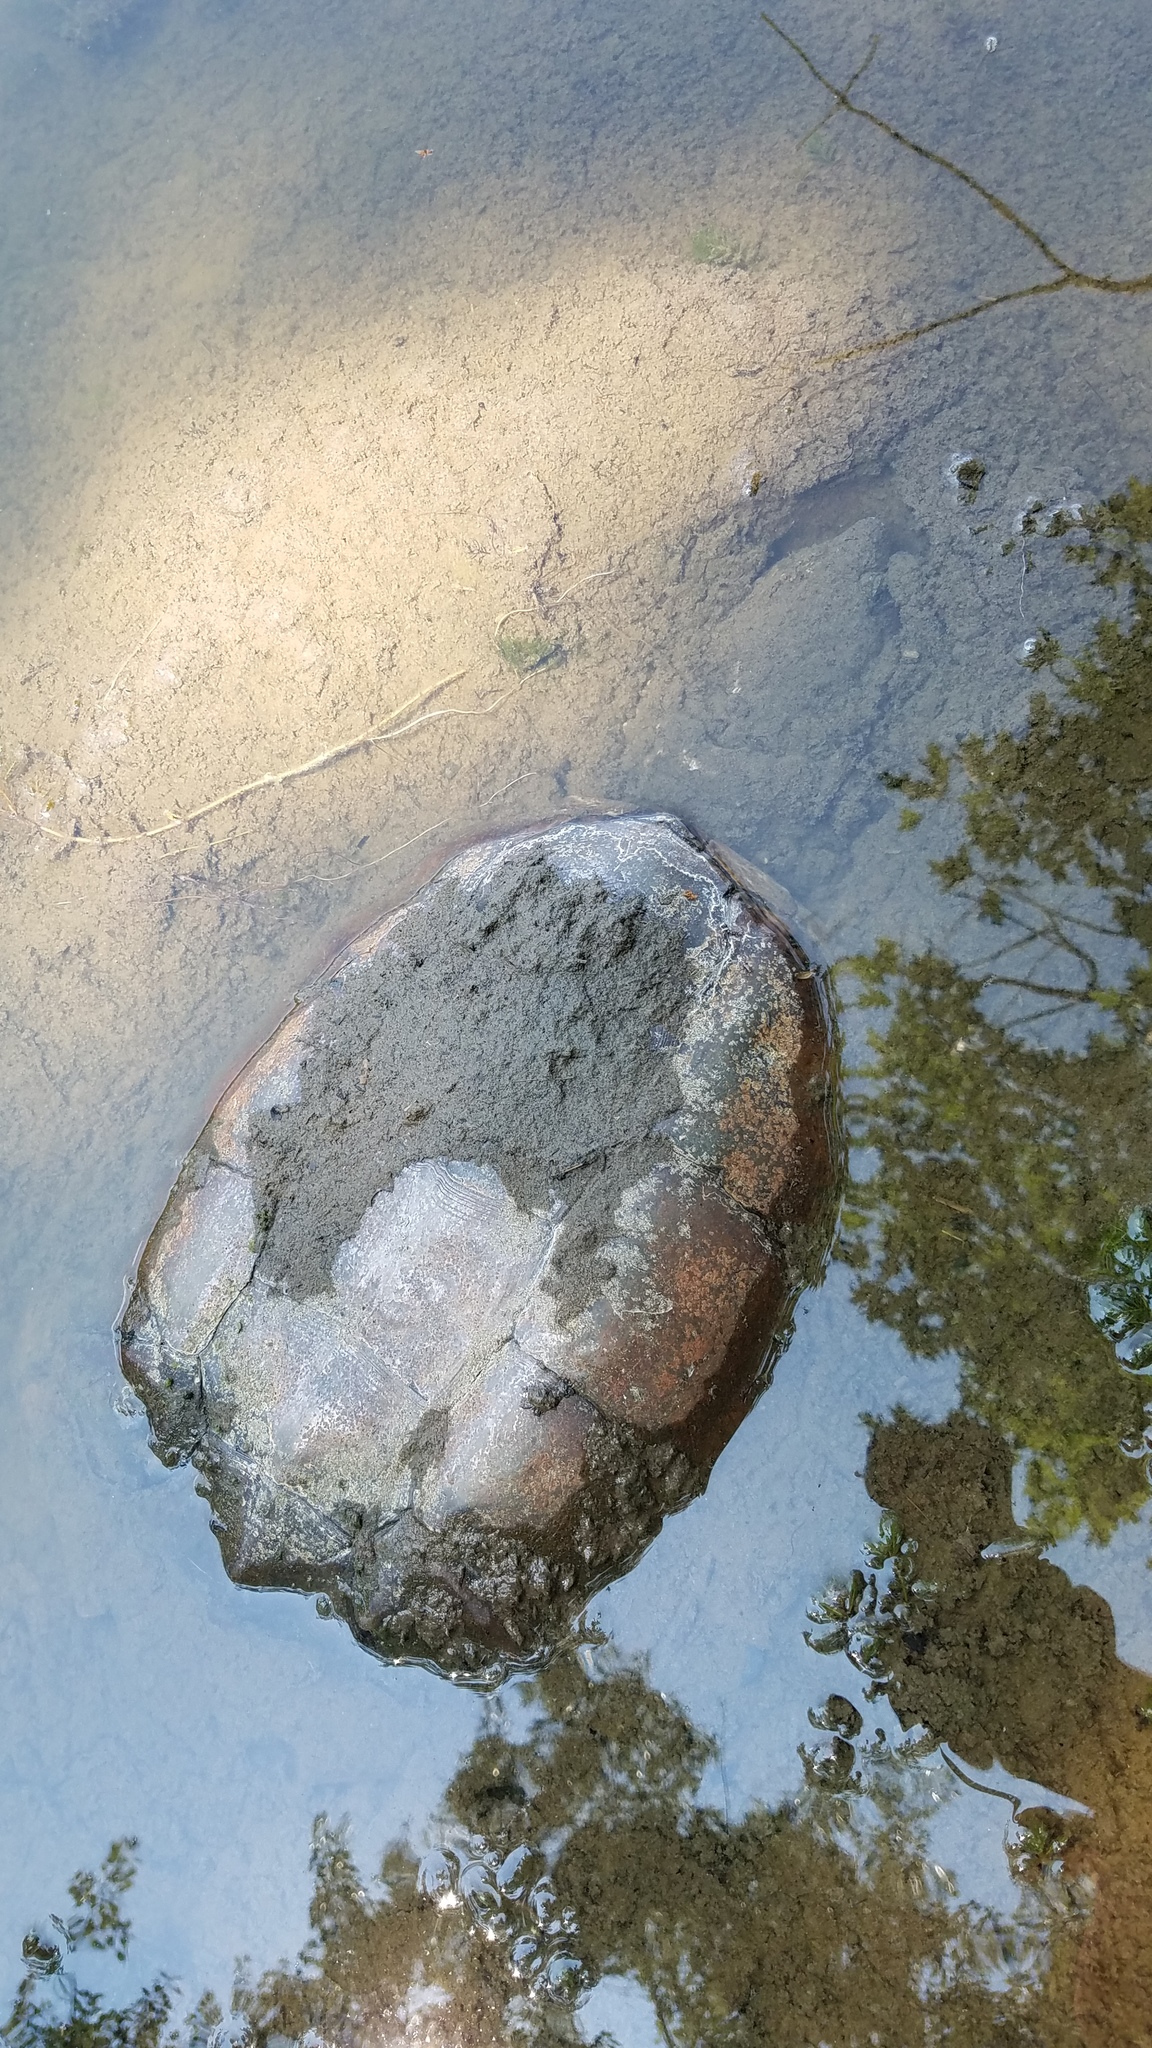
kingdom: Animalia
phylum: Chordata
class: Testudines
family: Chelydridae
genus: Chelydra
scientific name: Chelydra serpentina
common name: Common snapping turtle
